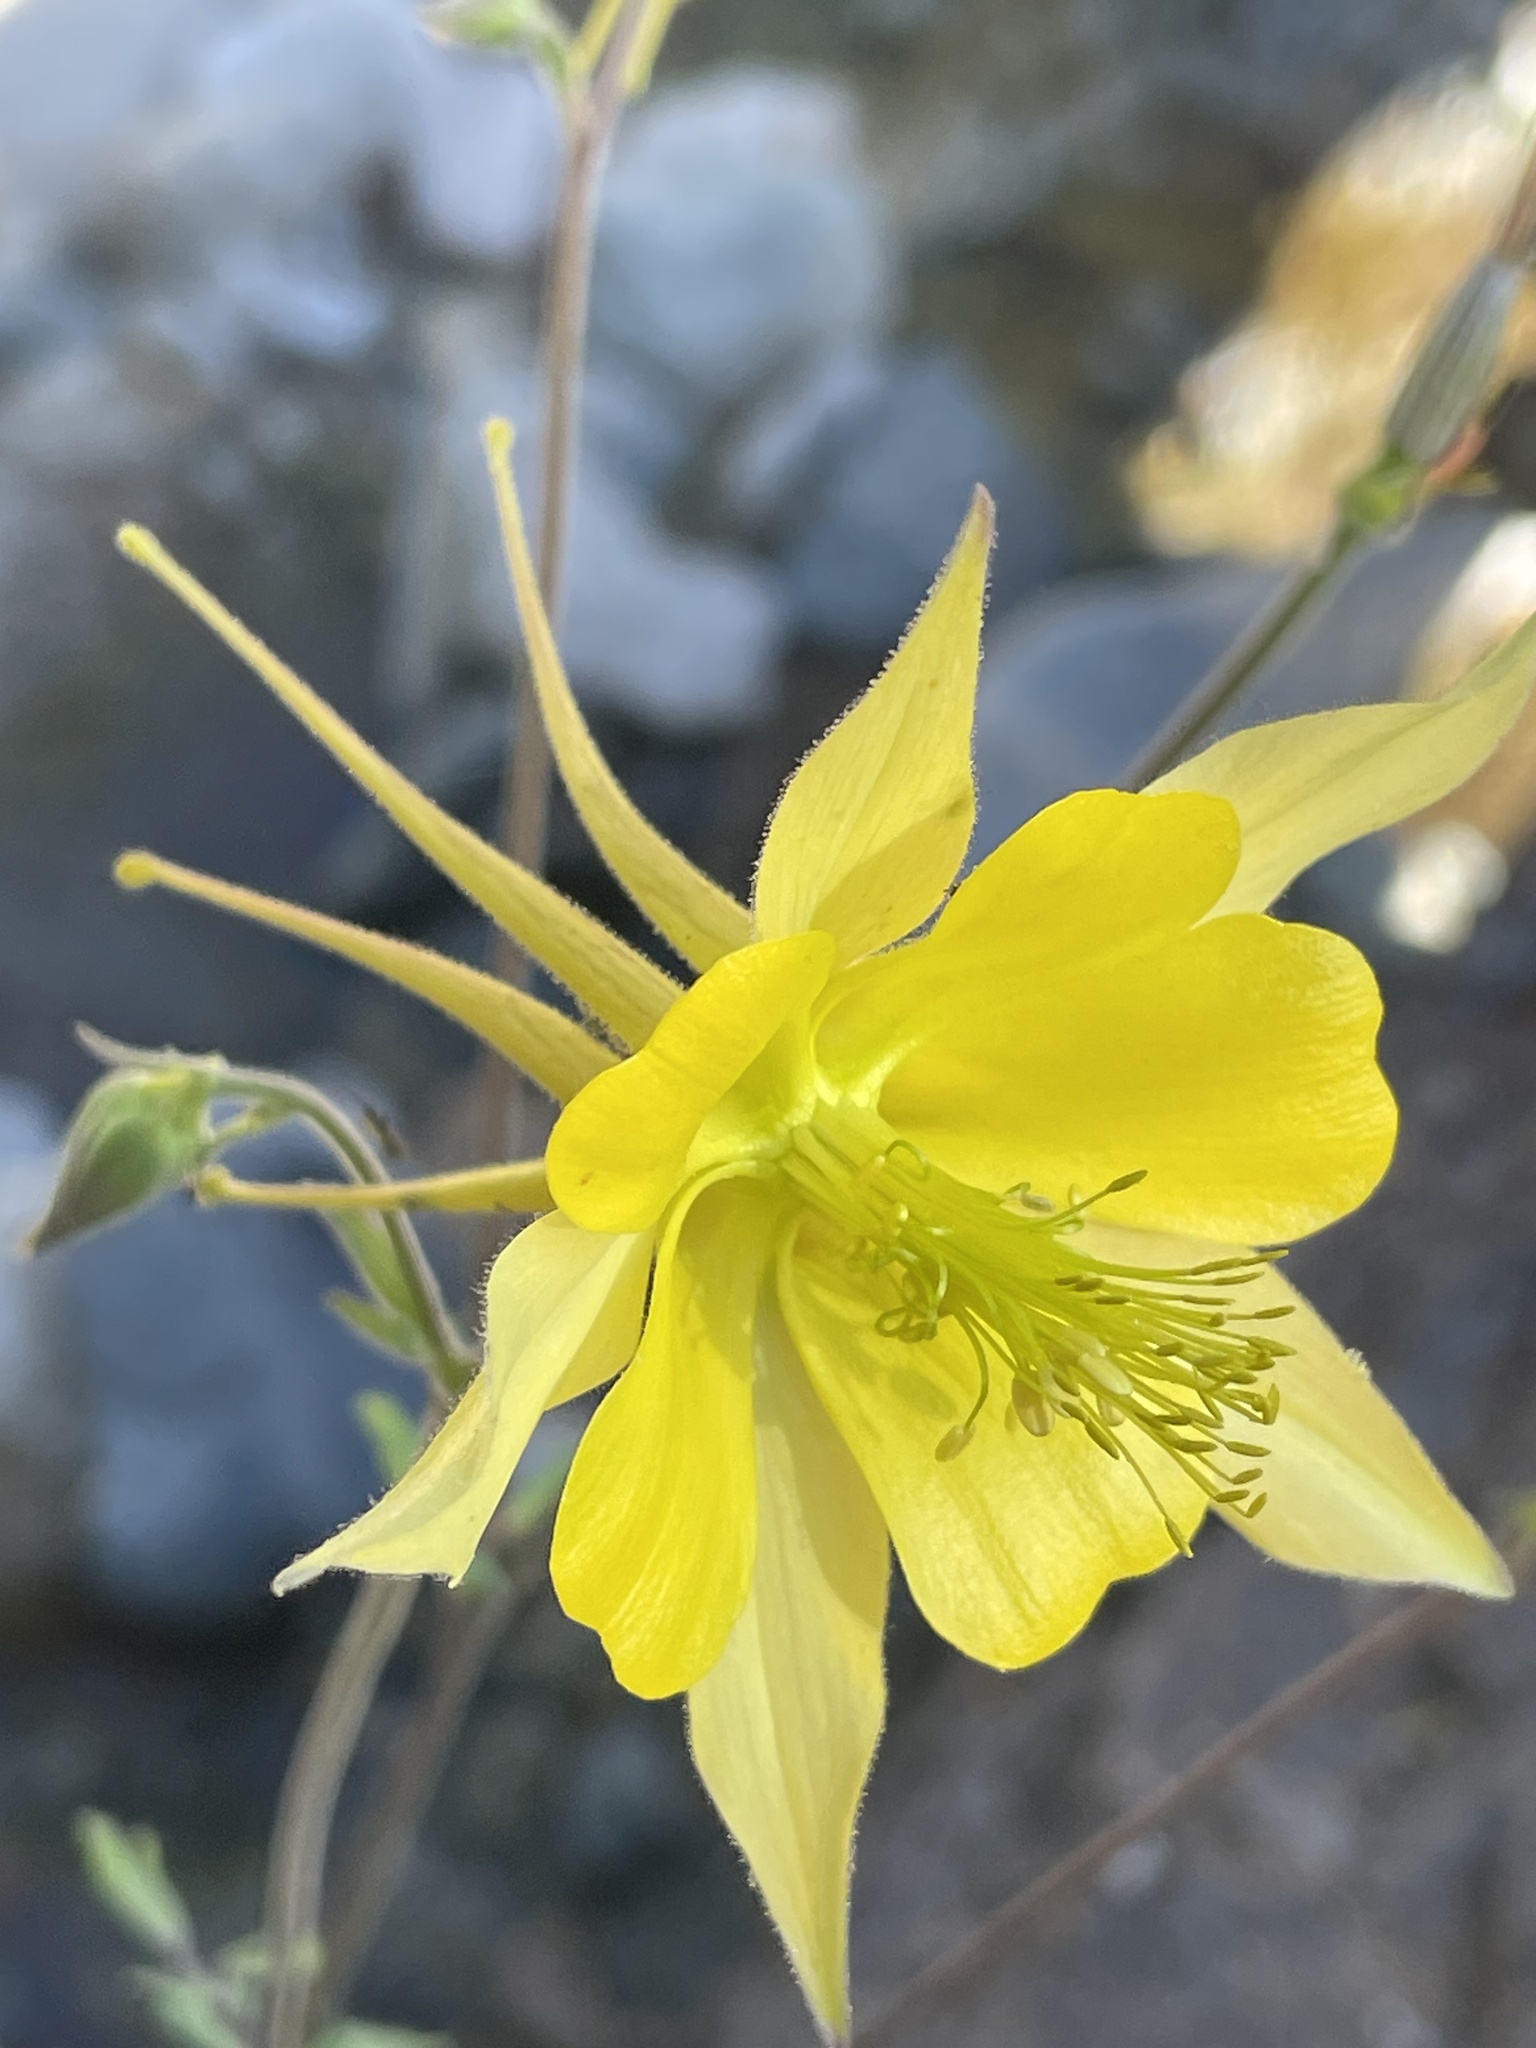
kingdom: Plantae
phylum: Tracheophyta
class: Magnoliopsida
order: Ranunculales
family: Ranunculaceae
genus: Aquilegia
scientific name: Aquilegia chrysantha
